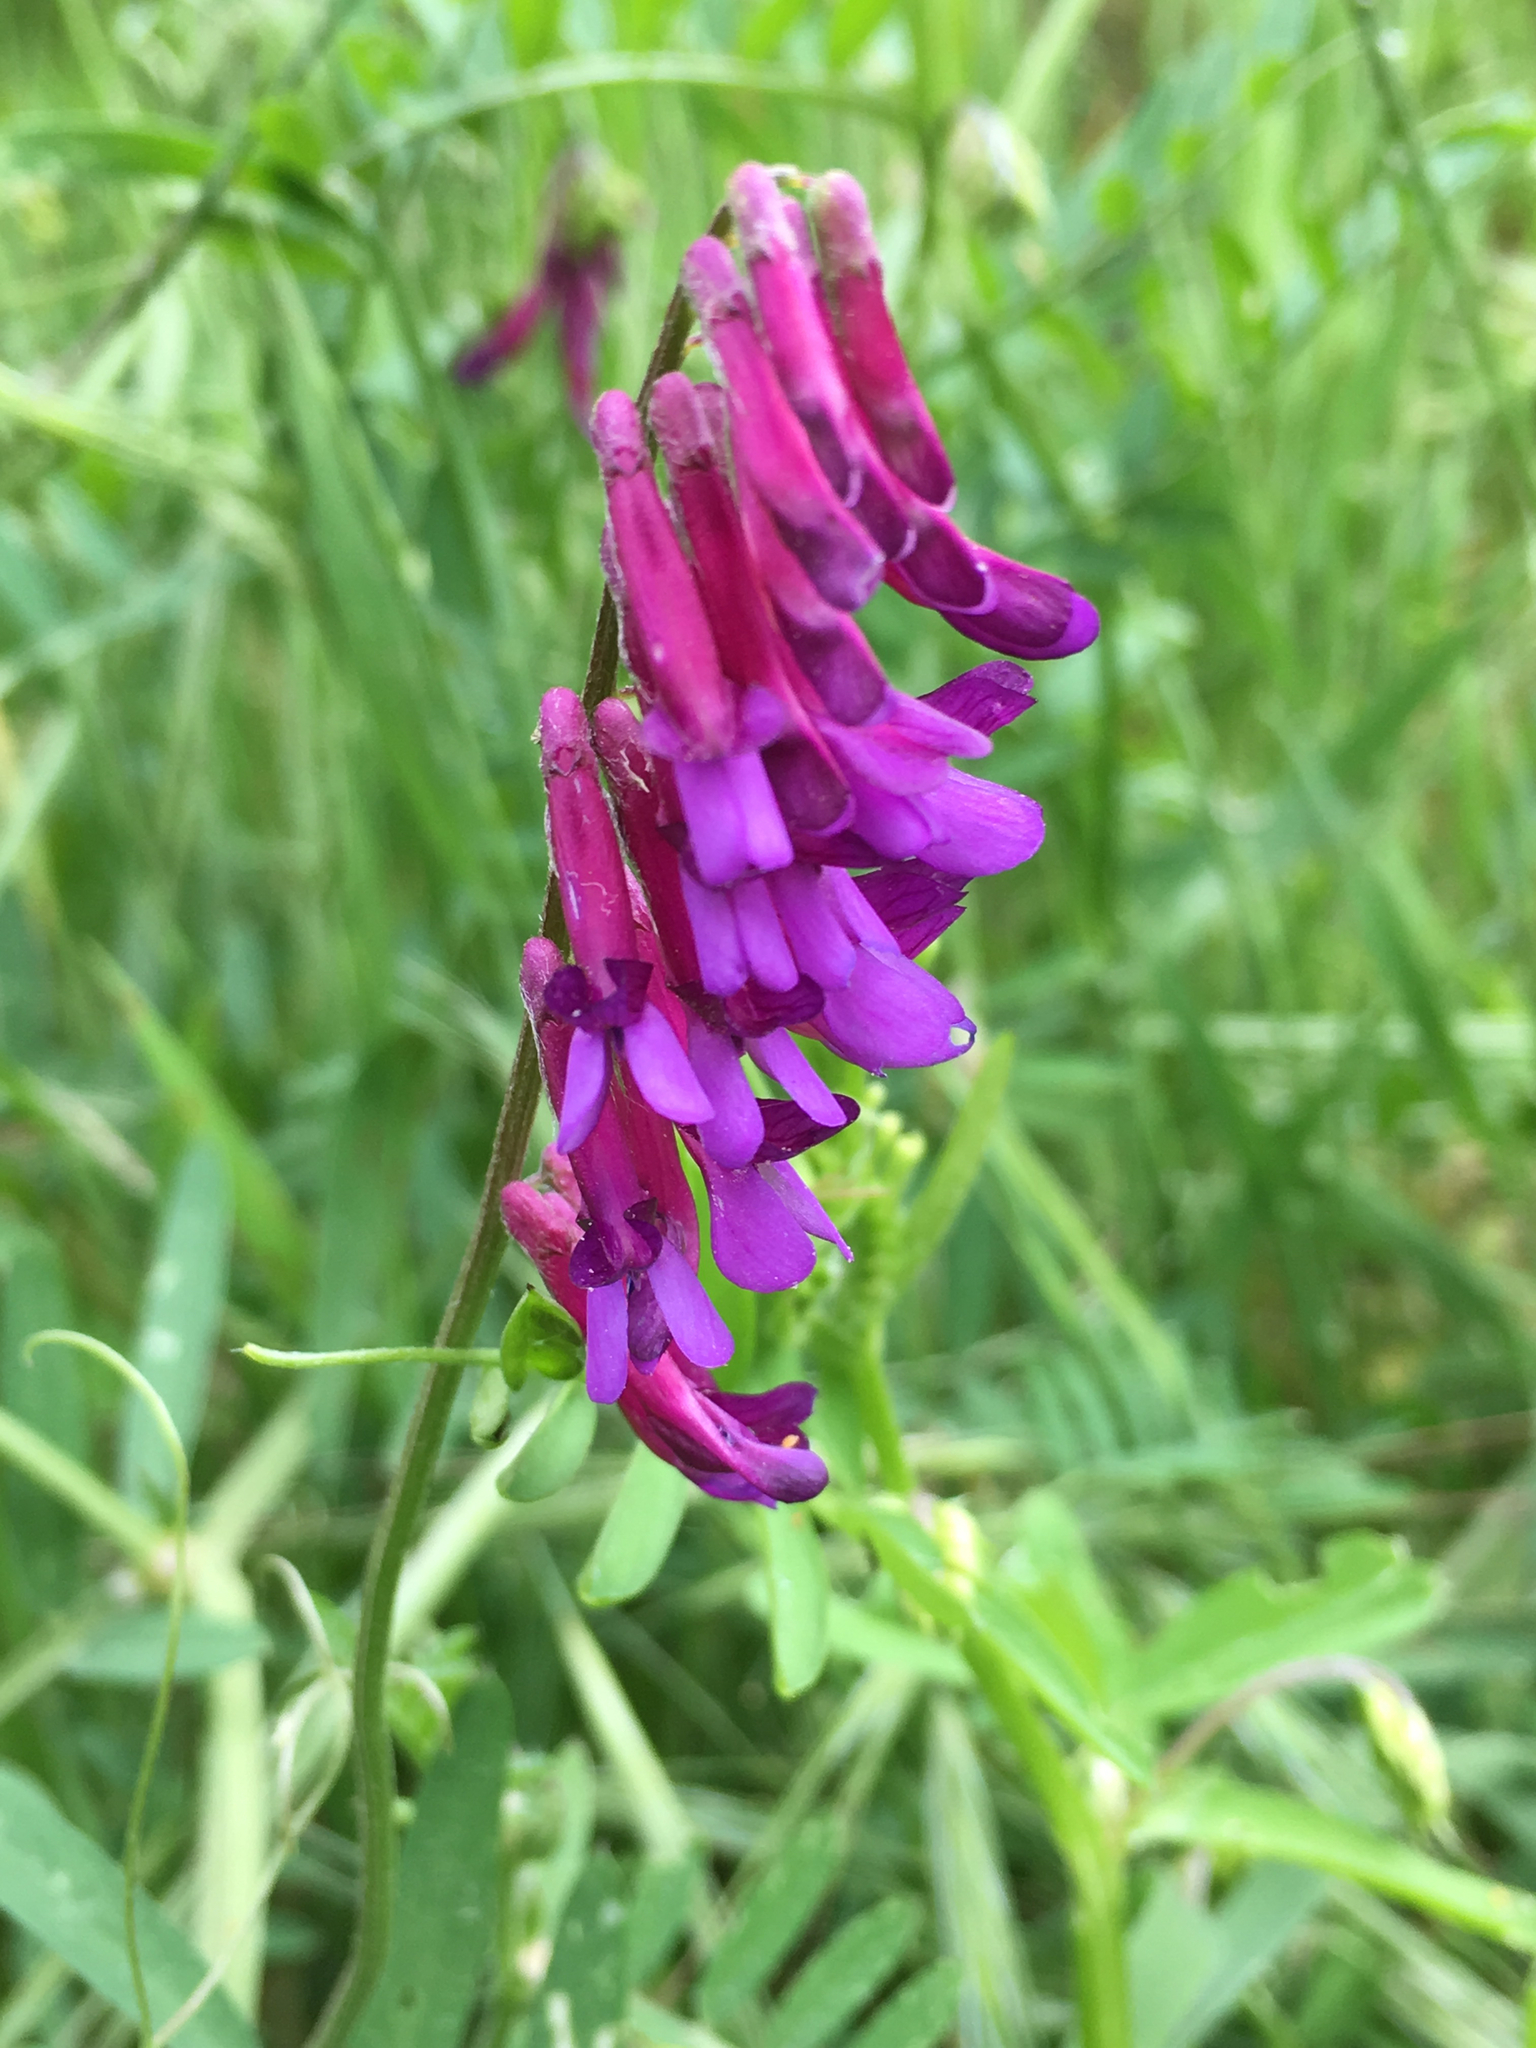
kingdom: Plantae
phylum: Tracheophyta
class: Magnoliopsida
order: Fabales
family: Fabaceae
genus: Vicia
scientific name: Vicia villosa
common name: Fodder vetch
